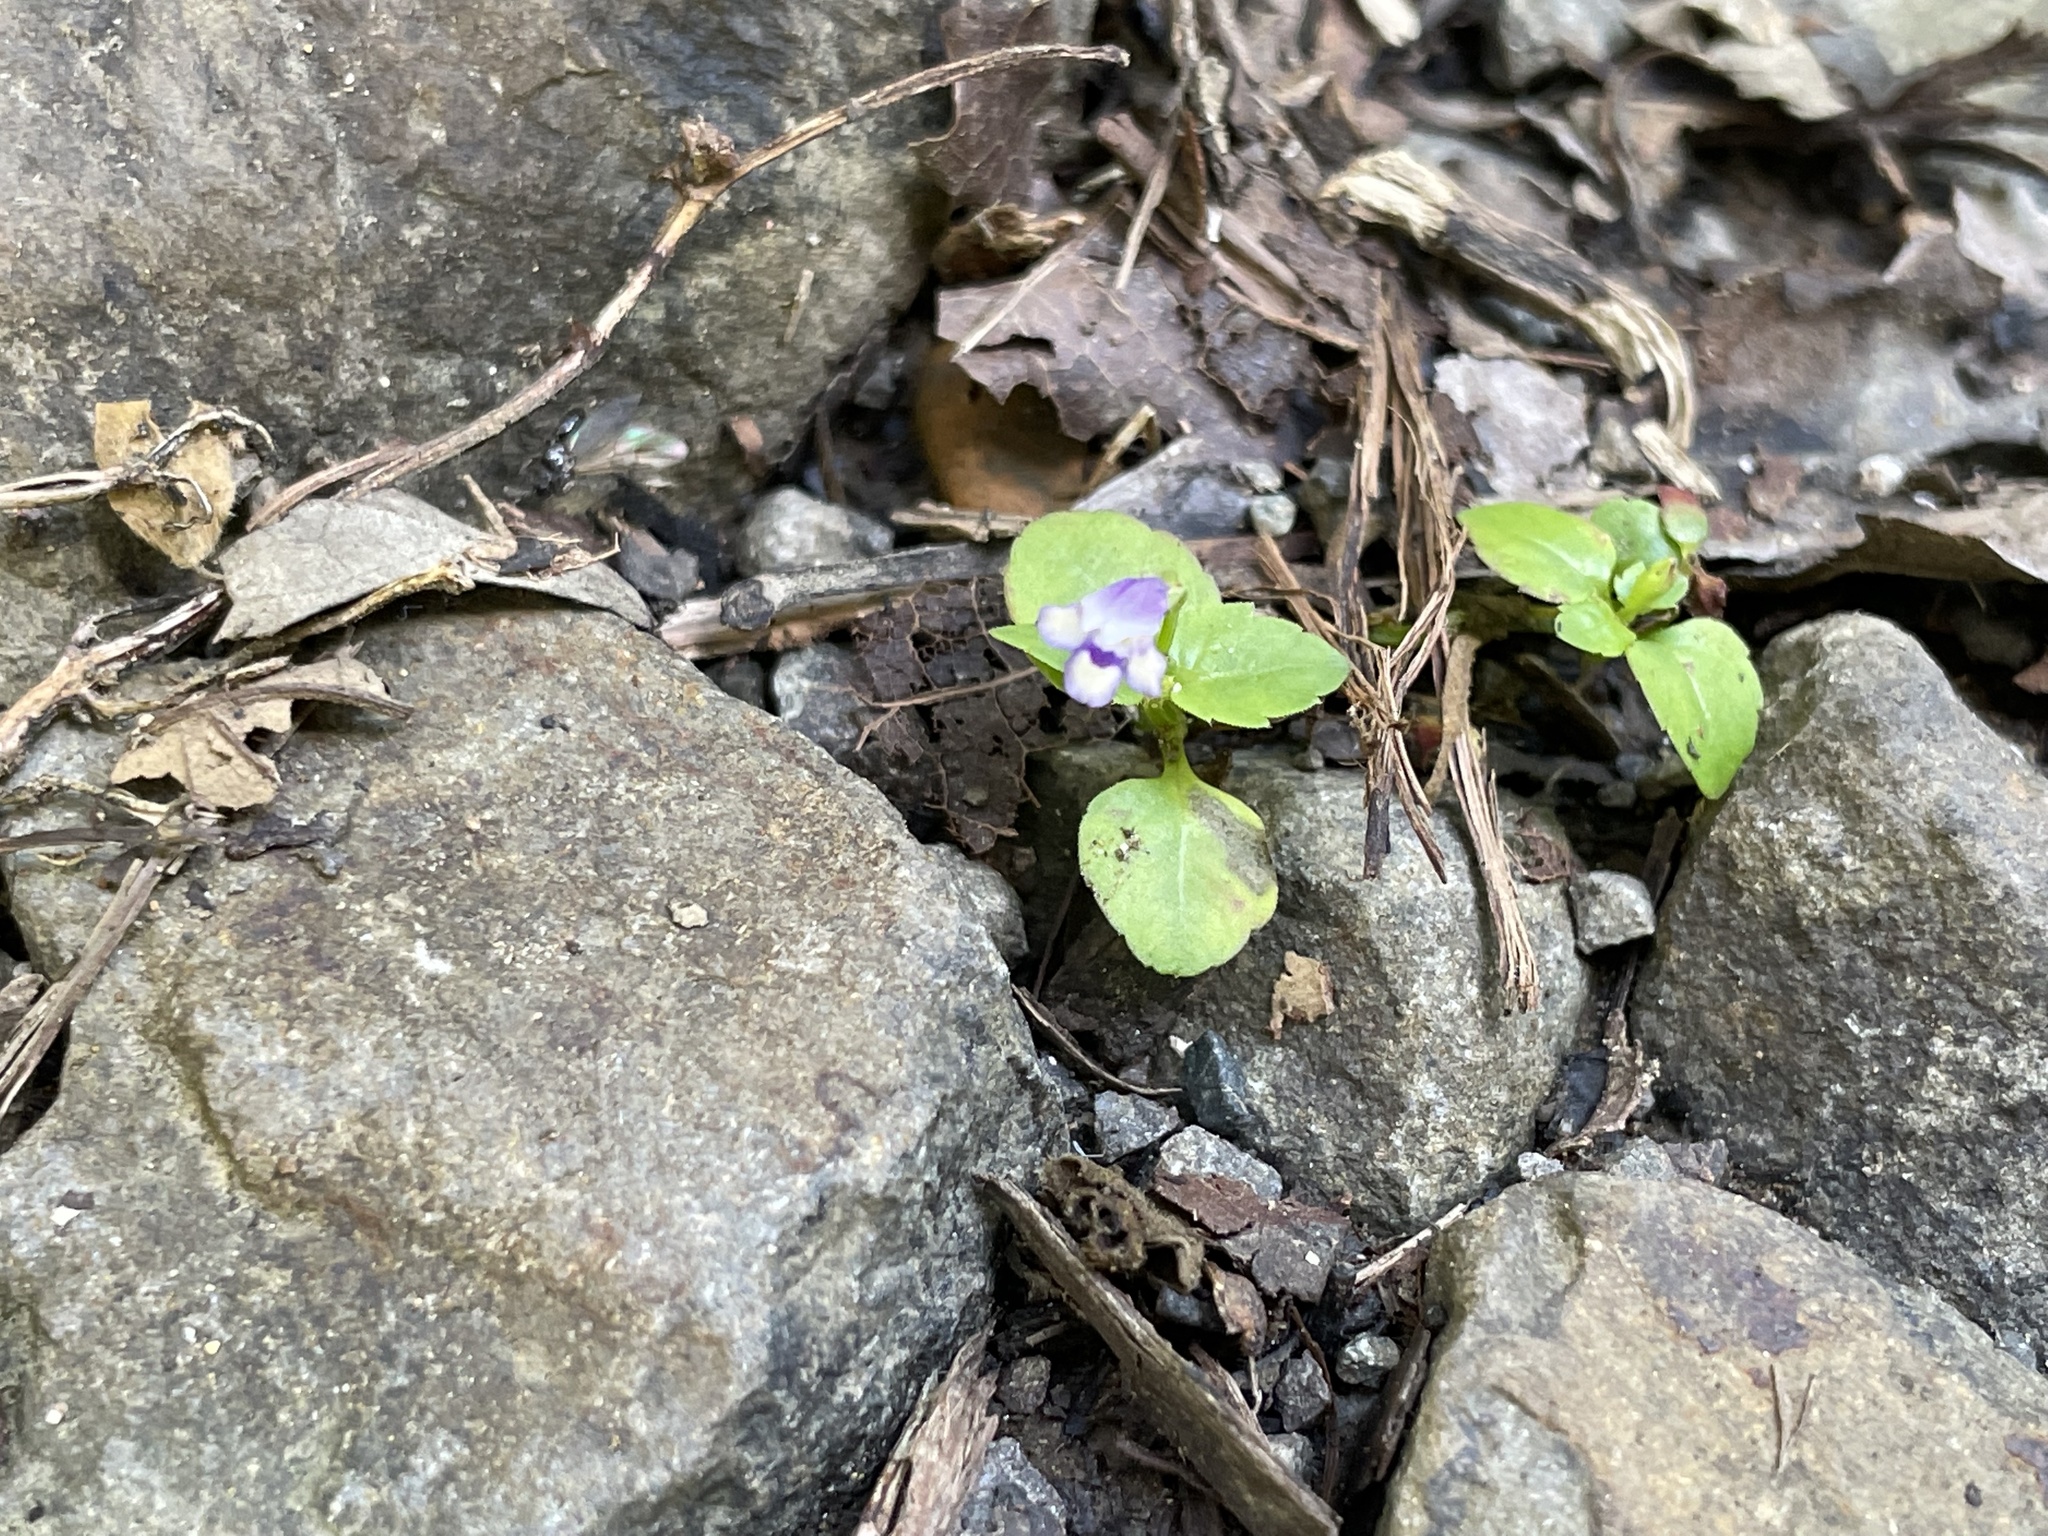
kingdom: Plantae
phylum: Tracheophyta
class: Magnoliopsida
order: Lamiales
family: Linderniaceae
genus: Torenia
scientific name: Torenia crustacea
